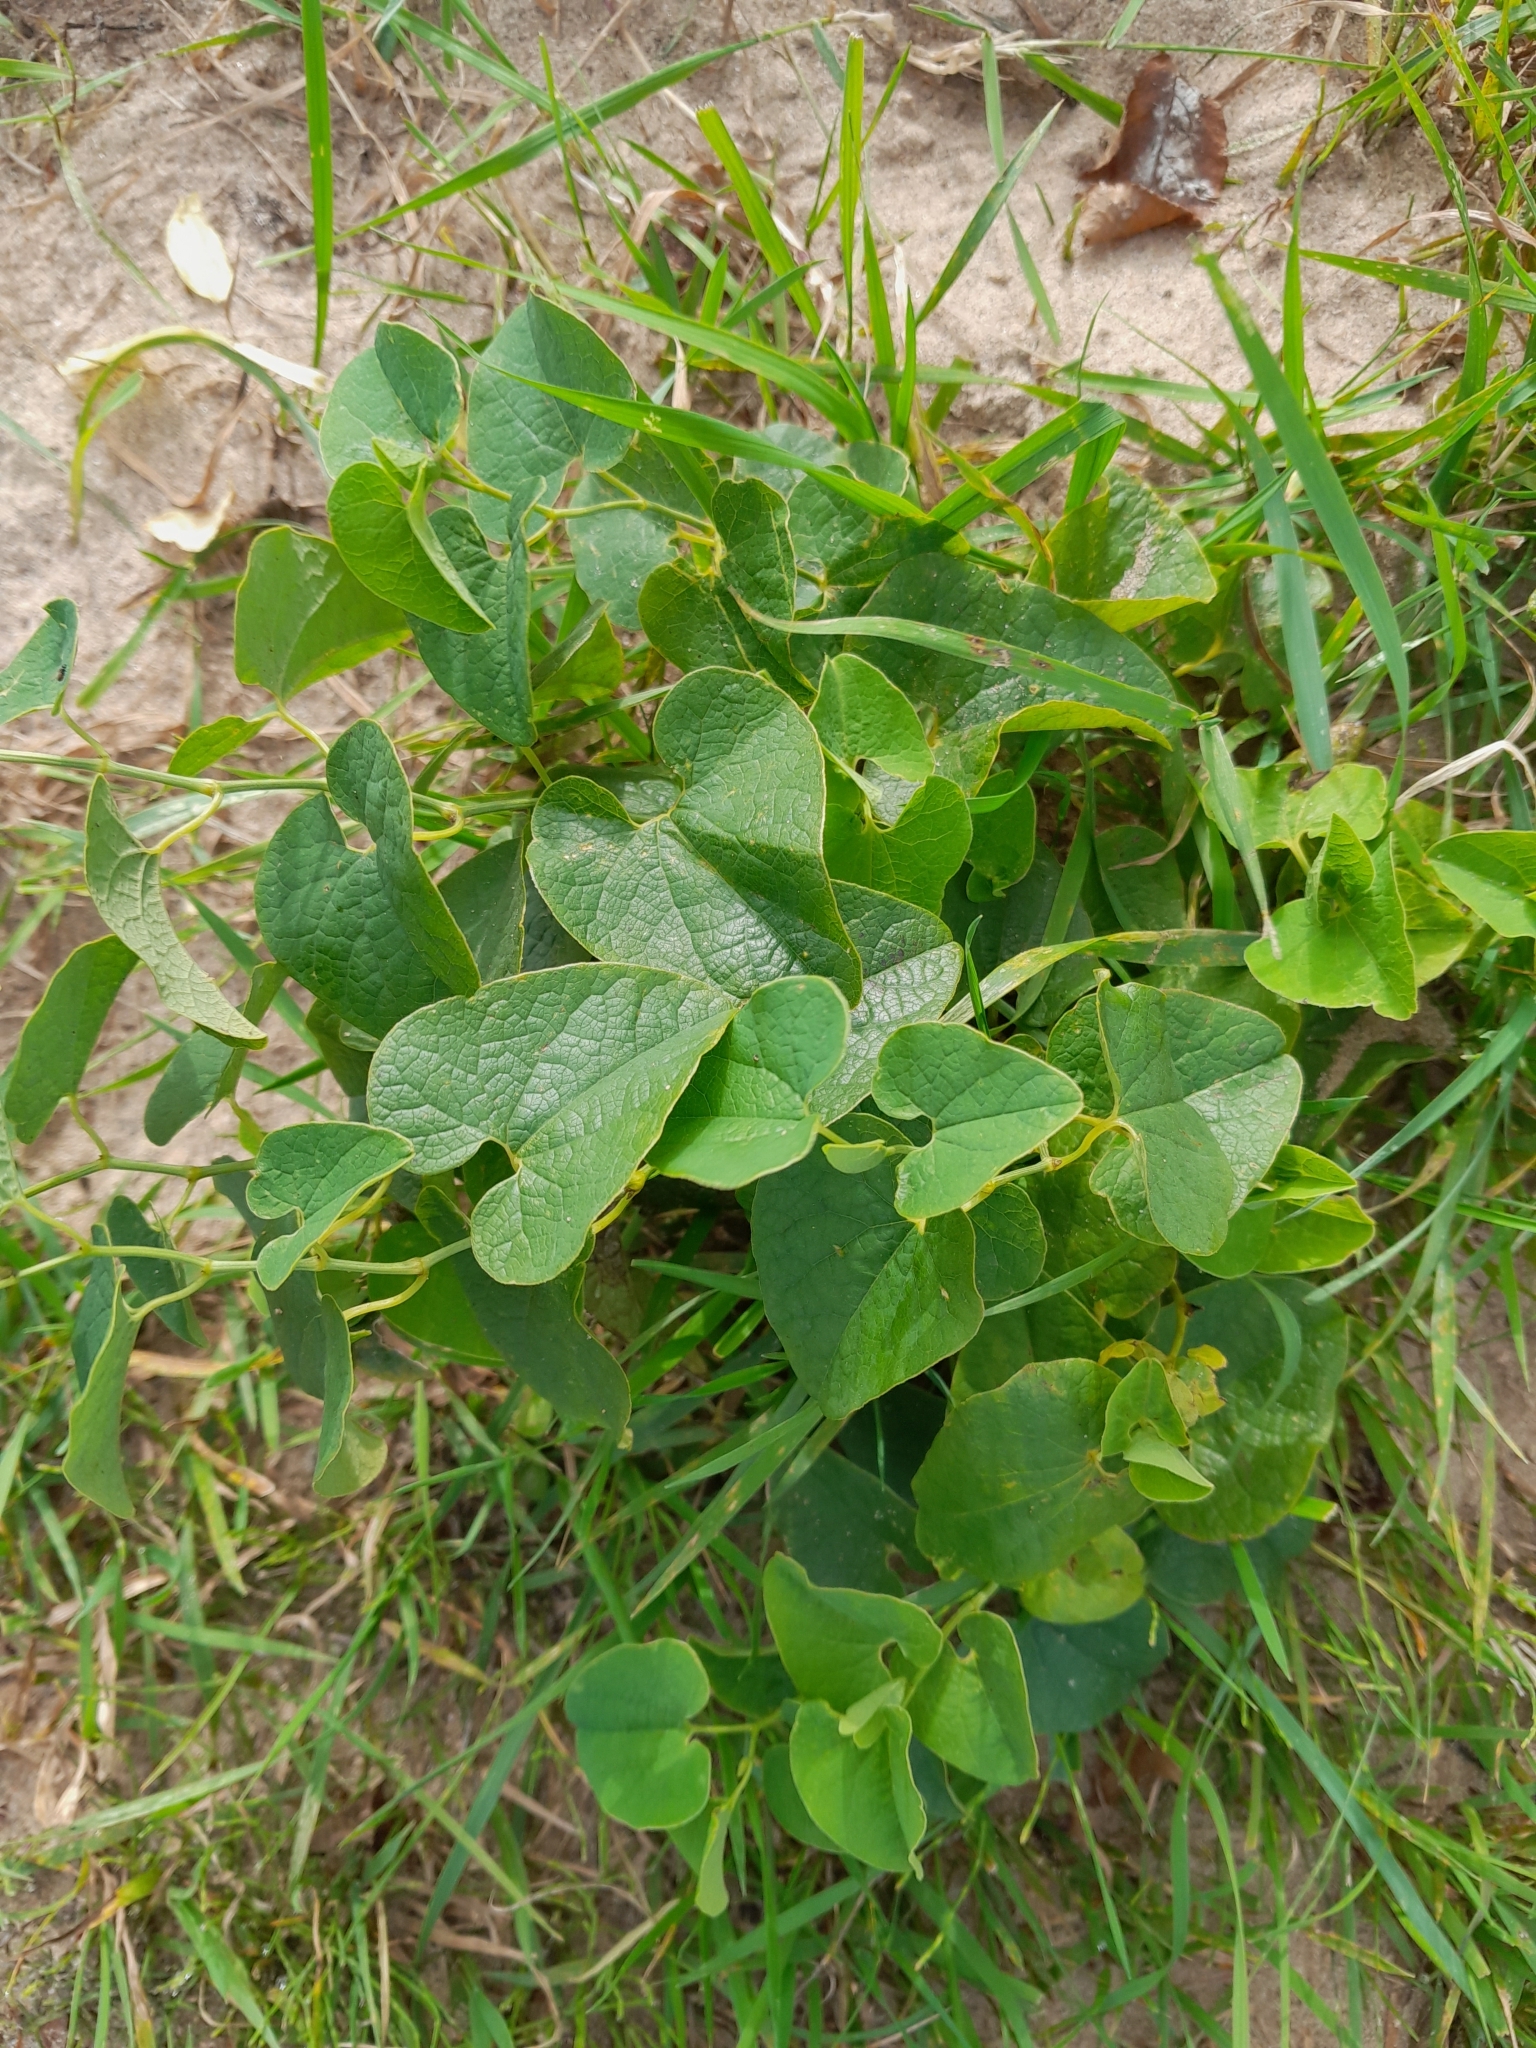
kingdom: Plantae
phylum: Tracheophyta
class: Magnoliopsida
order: Piperales
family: Aristolochiaceae
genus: Aristolochia
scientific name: Aristolochia clematitis
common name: Birthwort
